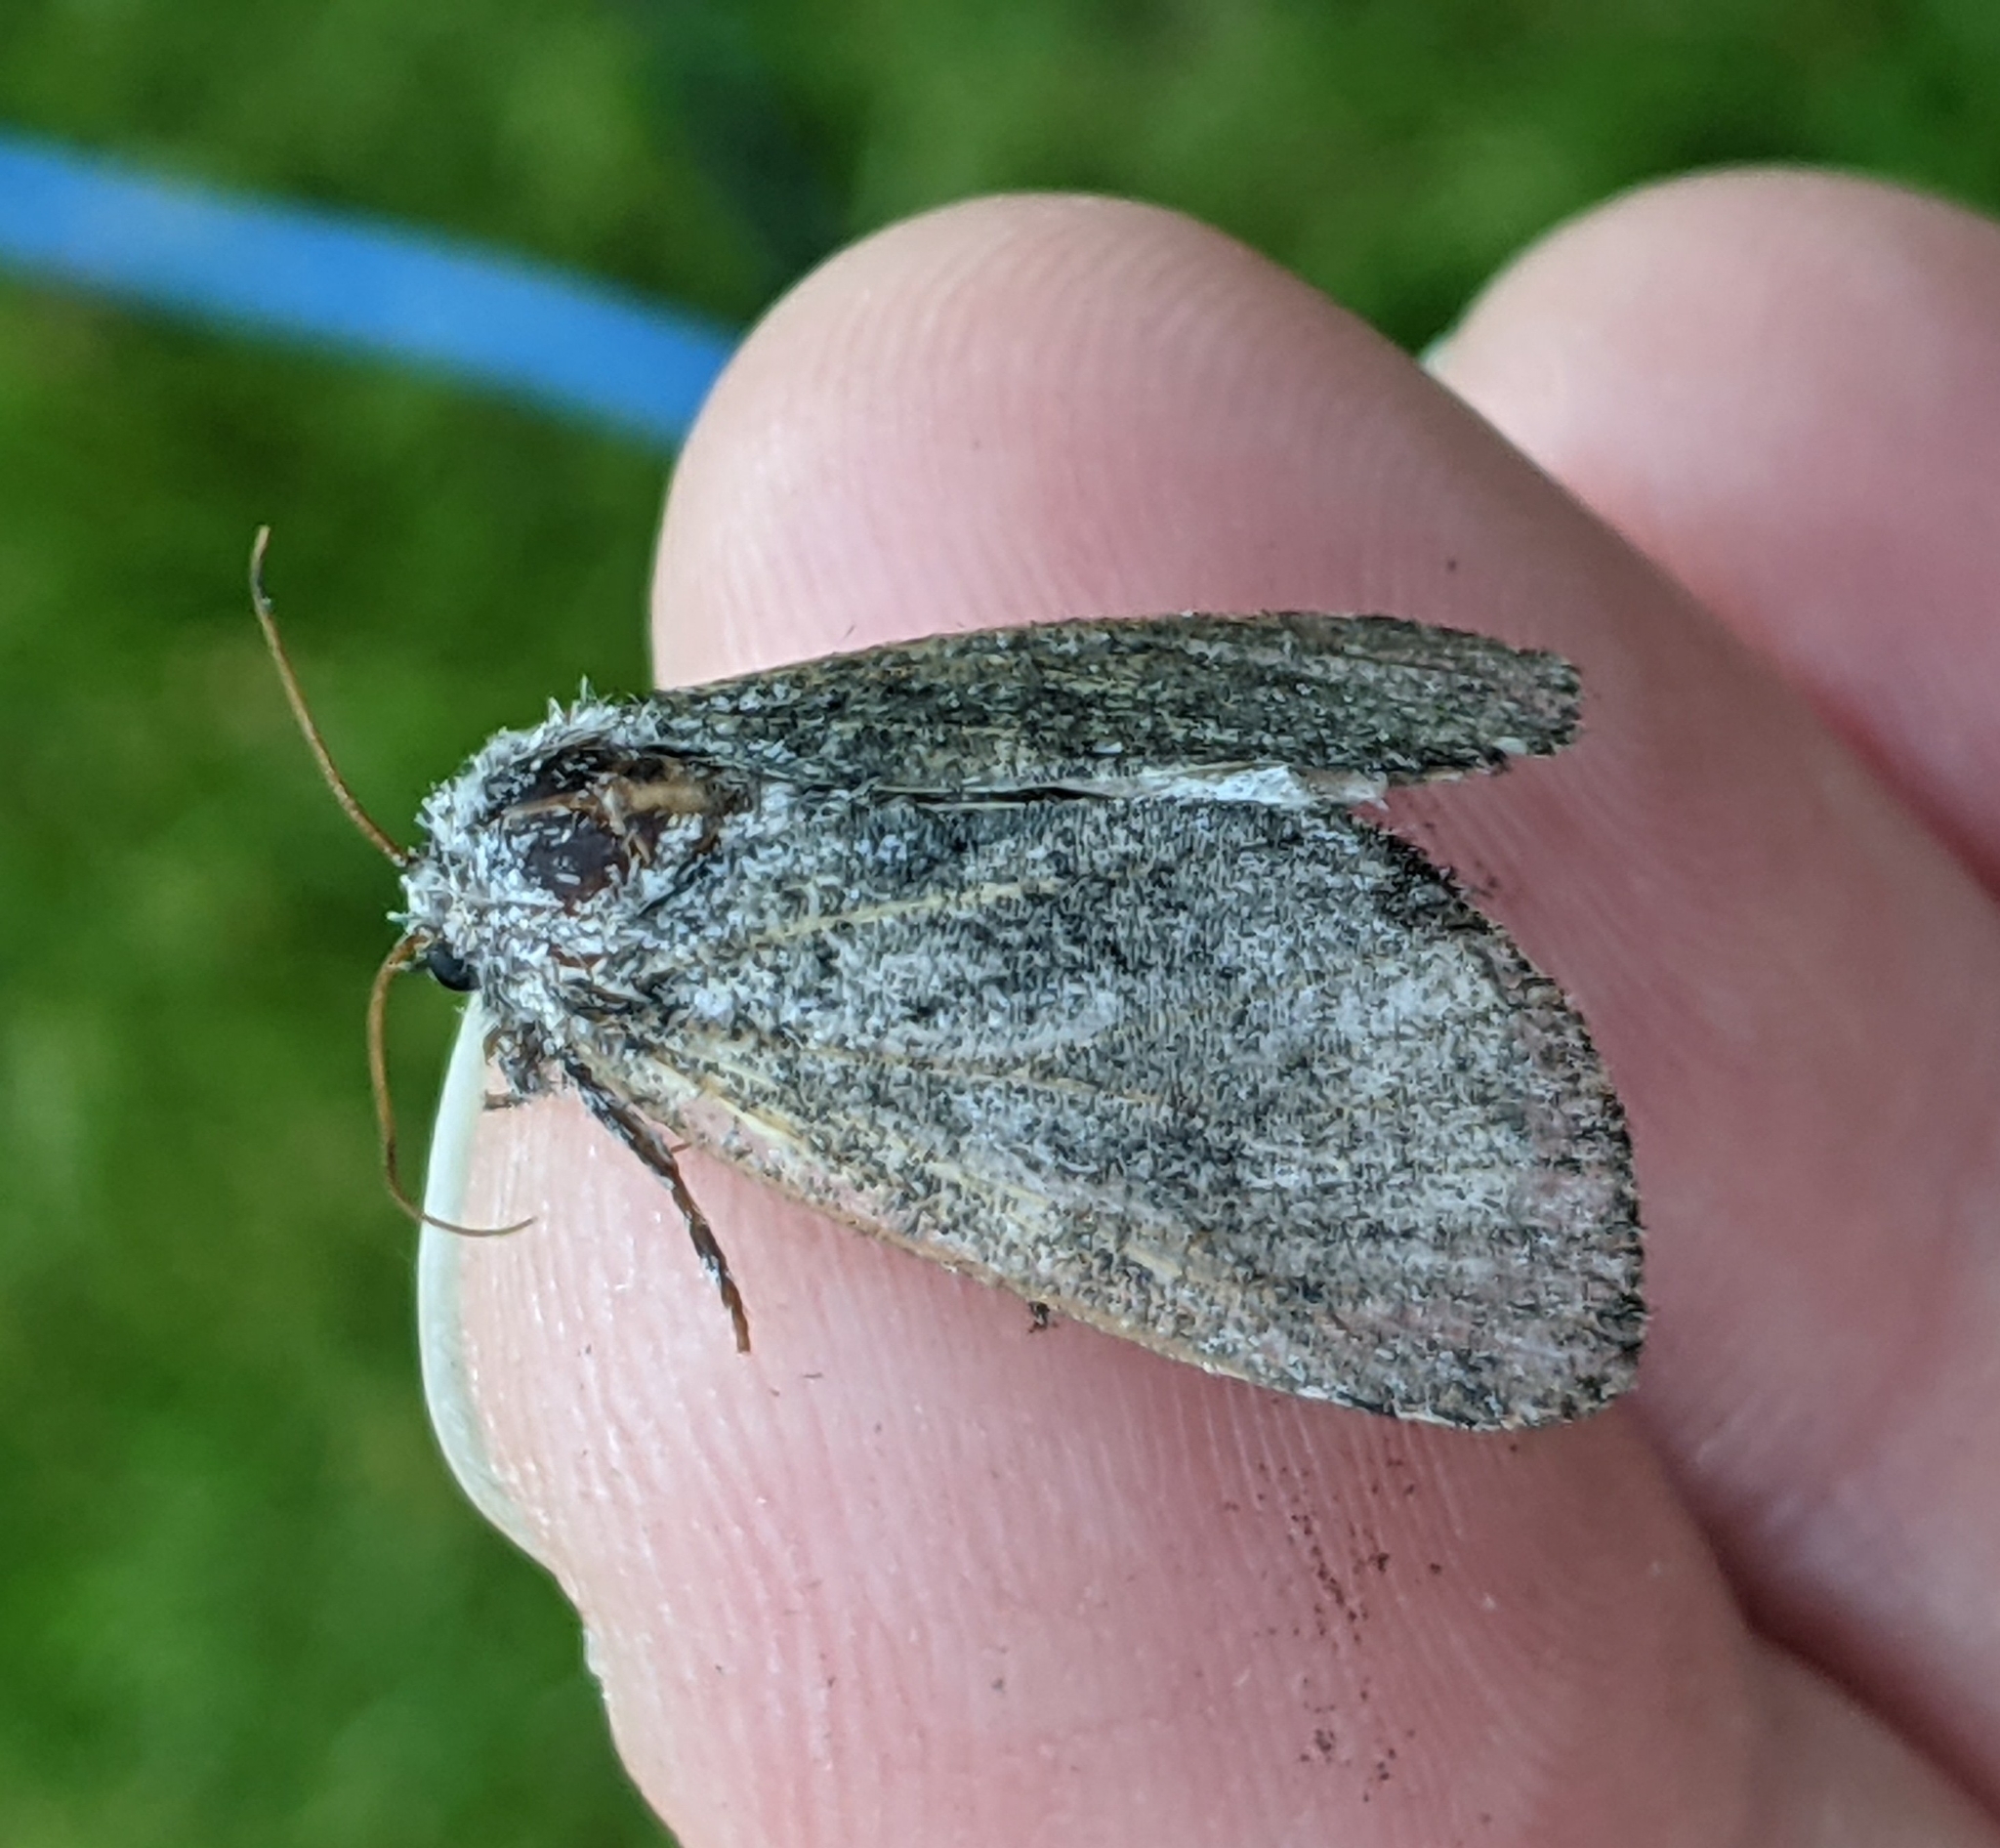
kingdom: Animalia
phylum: Arthropoda
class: Insecta
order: Lepidoptera
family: Noctuidae
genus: Raphia
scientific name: Raphia frater
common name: Brother
